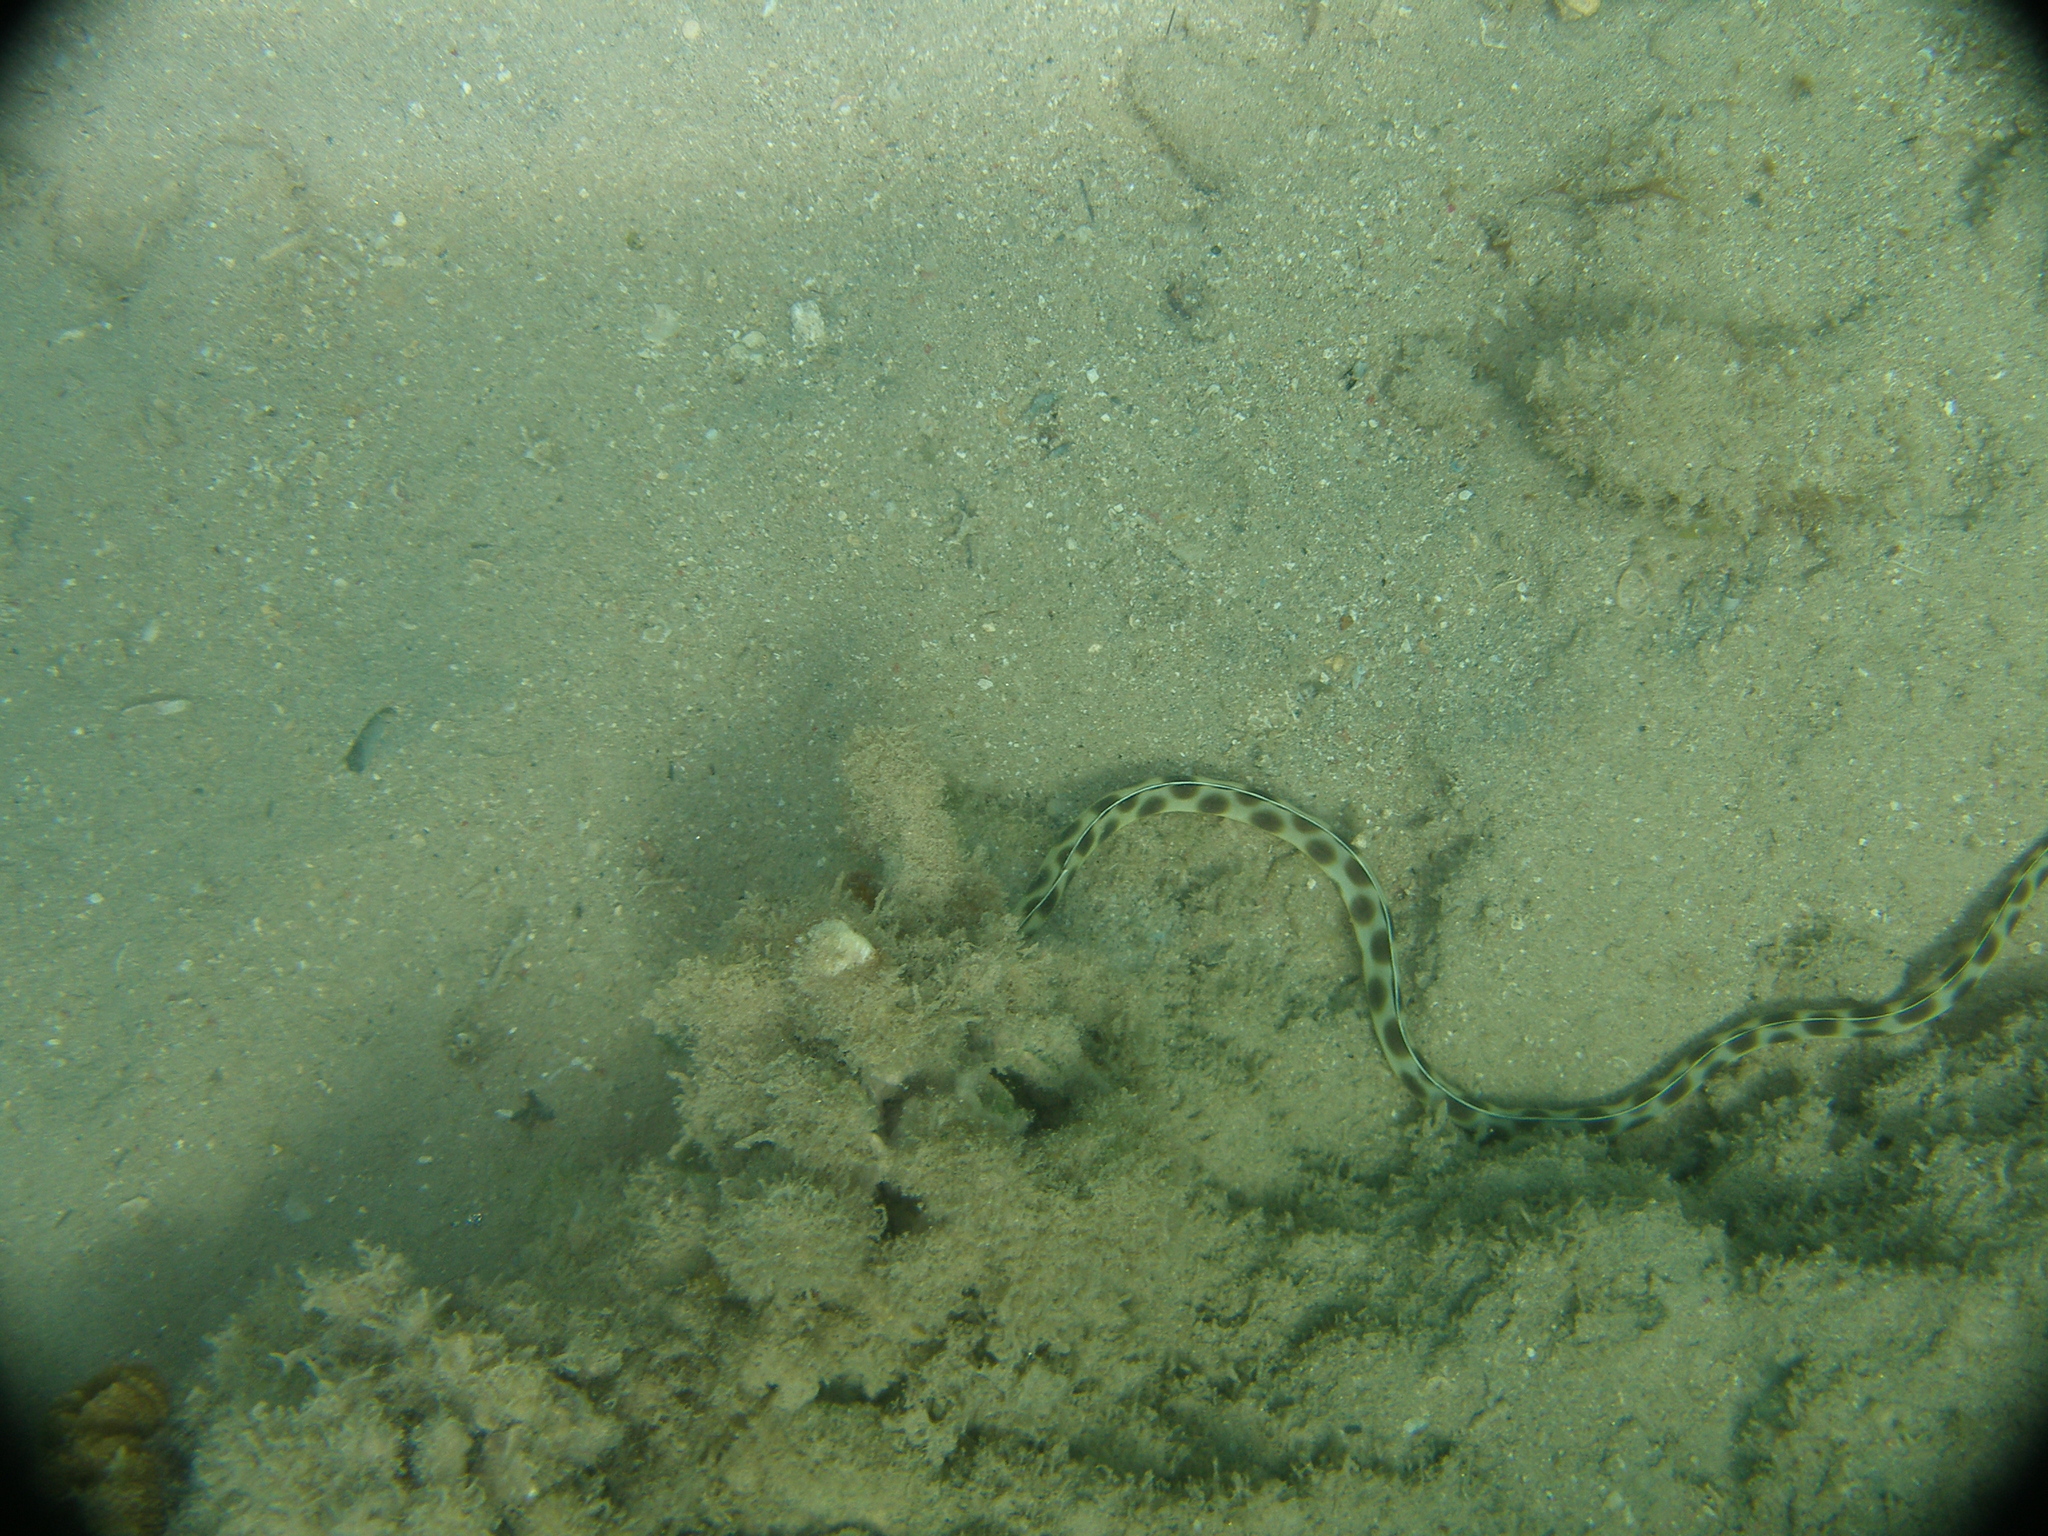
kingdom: Animalia
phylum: Chordata
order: Anguilliformes
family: Ophichthidae
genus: Myrichthys
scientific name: Myrichthys maculosus
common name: Spotted snake eel
